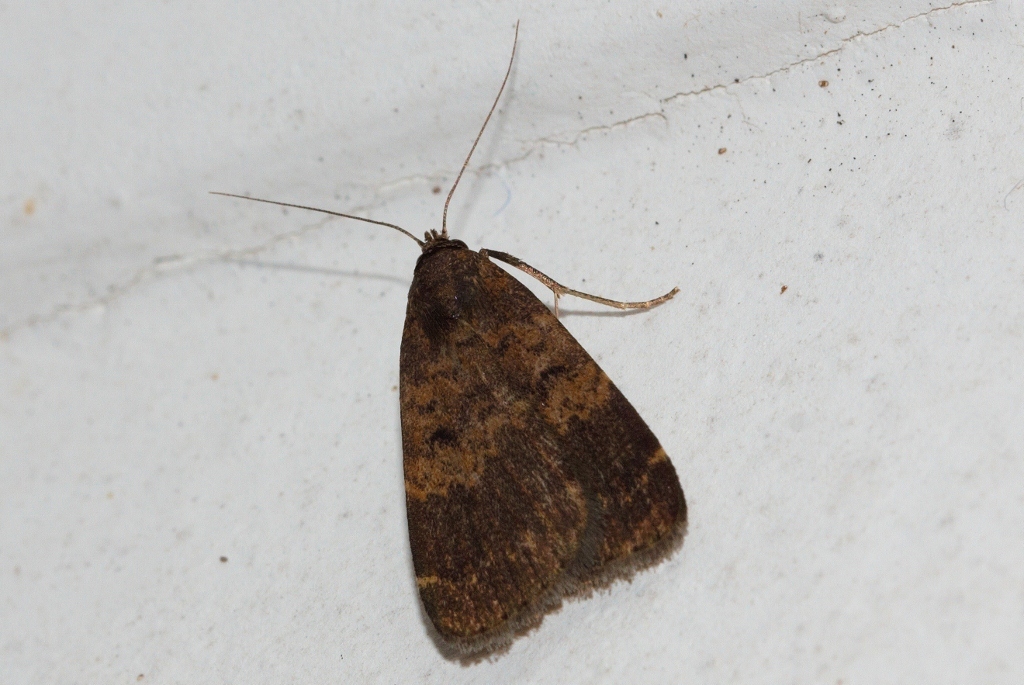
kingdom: Animalia
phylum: Arthropoda
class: Insecta
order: Lepidoptera
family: Erebidae
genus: Hydrillodes
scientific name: Hydrillodes uliginosalis
